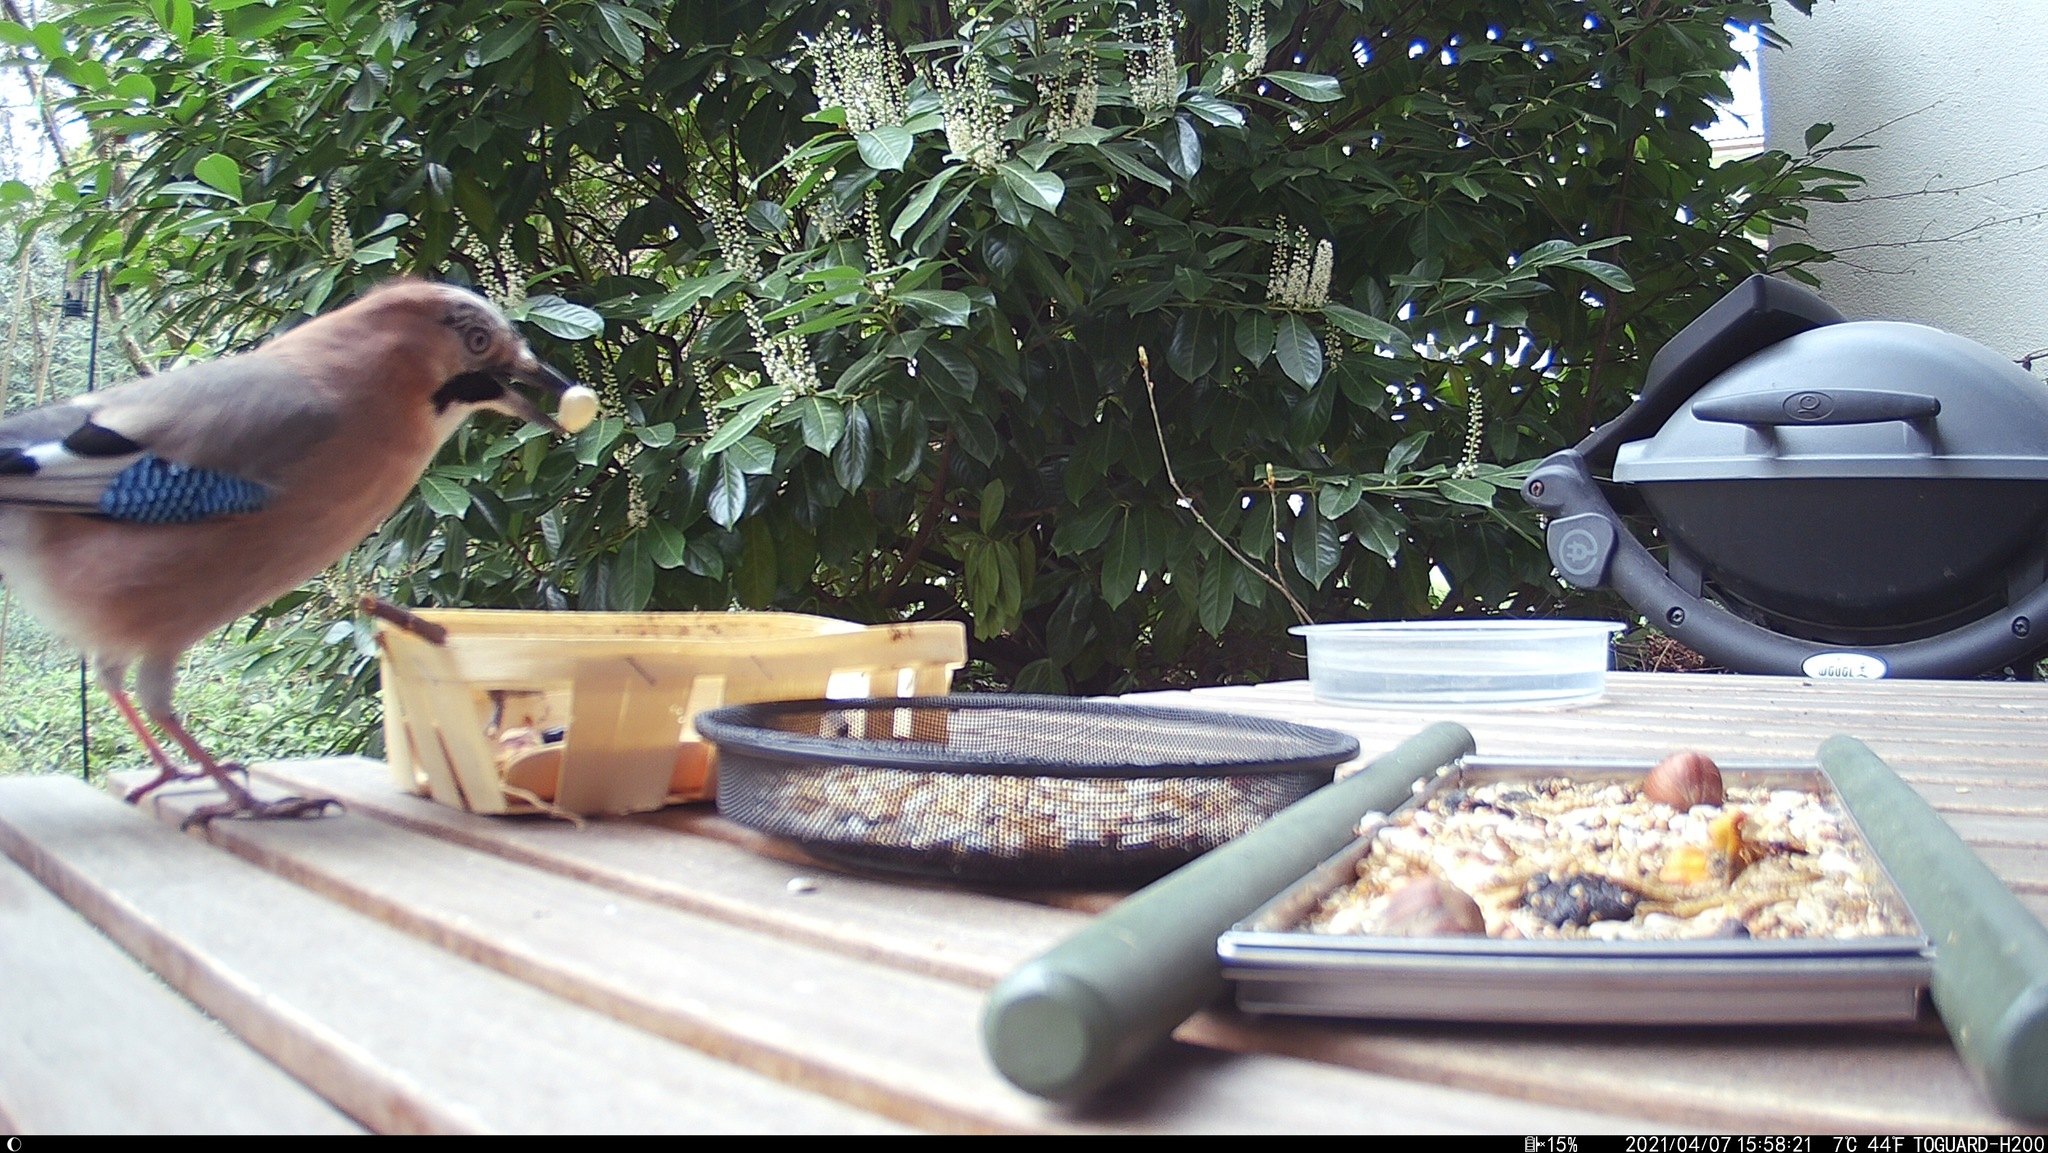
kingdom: Animalia
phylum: Chordata
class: Aves
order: Passeriformes
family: Corvidae
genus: Garrulus
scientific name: Garrulus glandarius
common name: Eurasian jay
